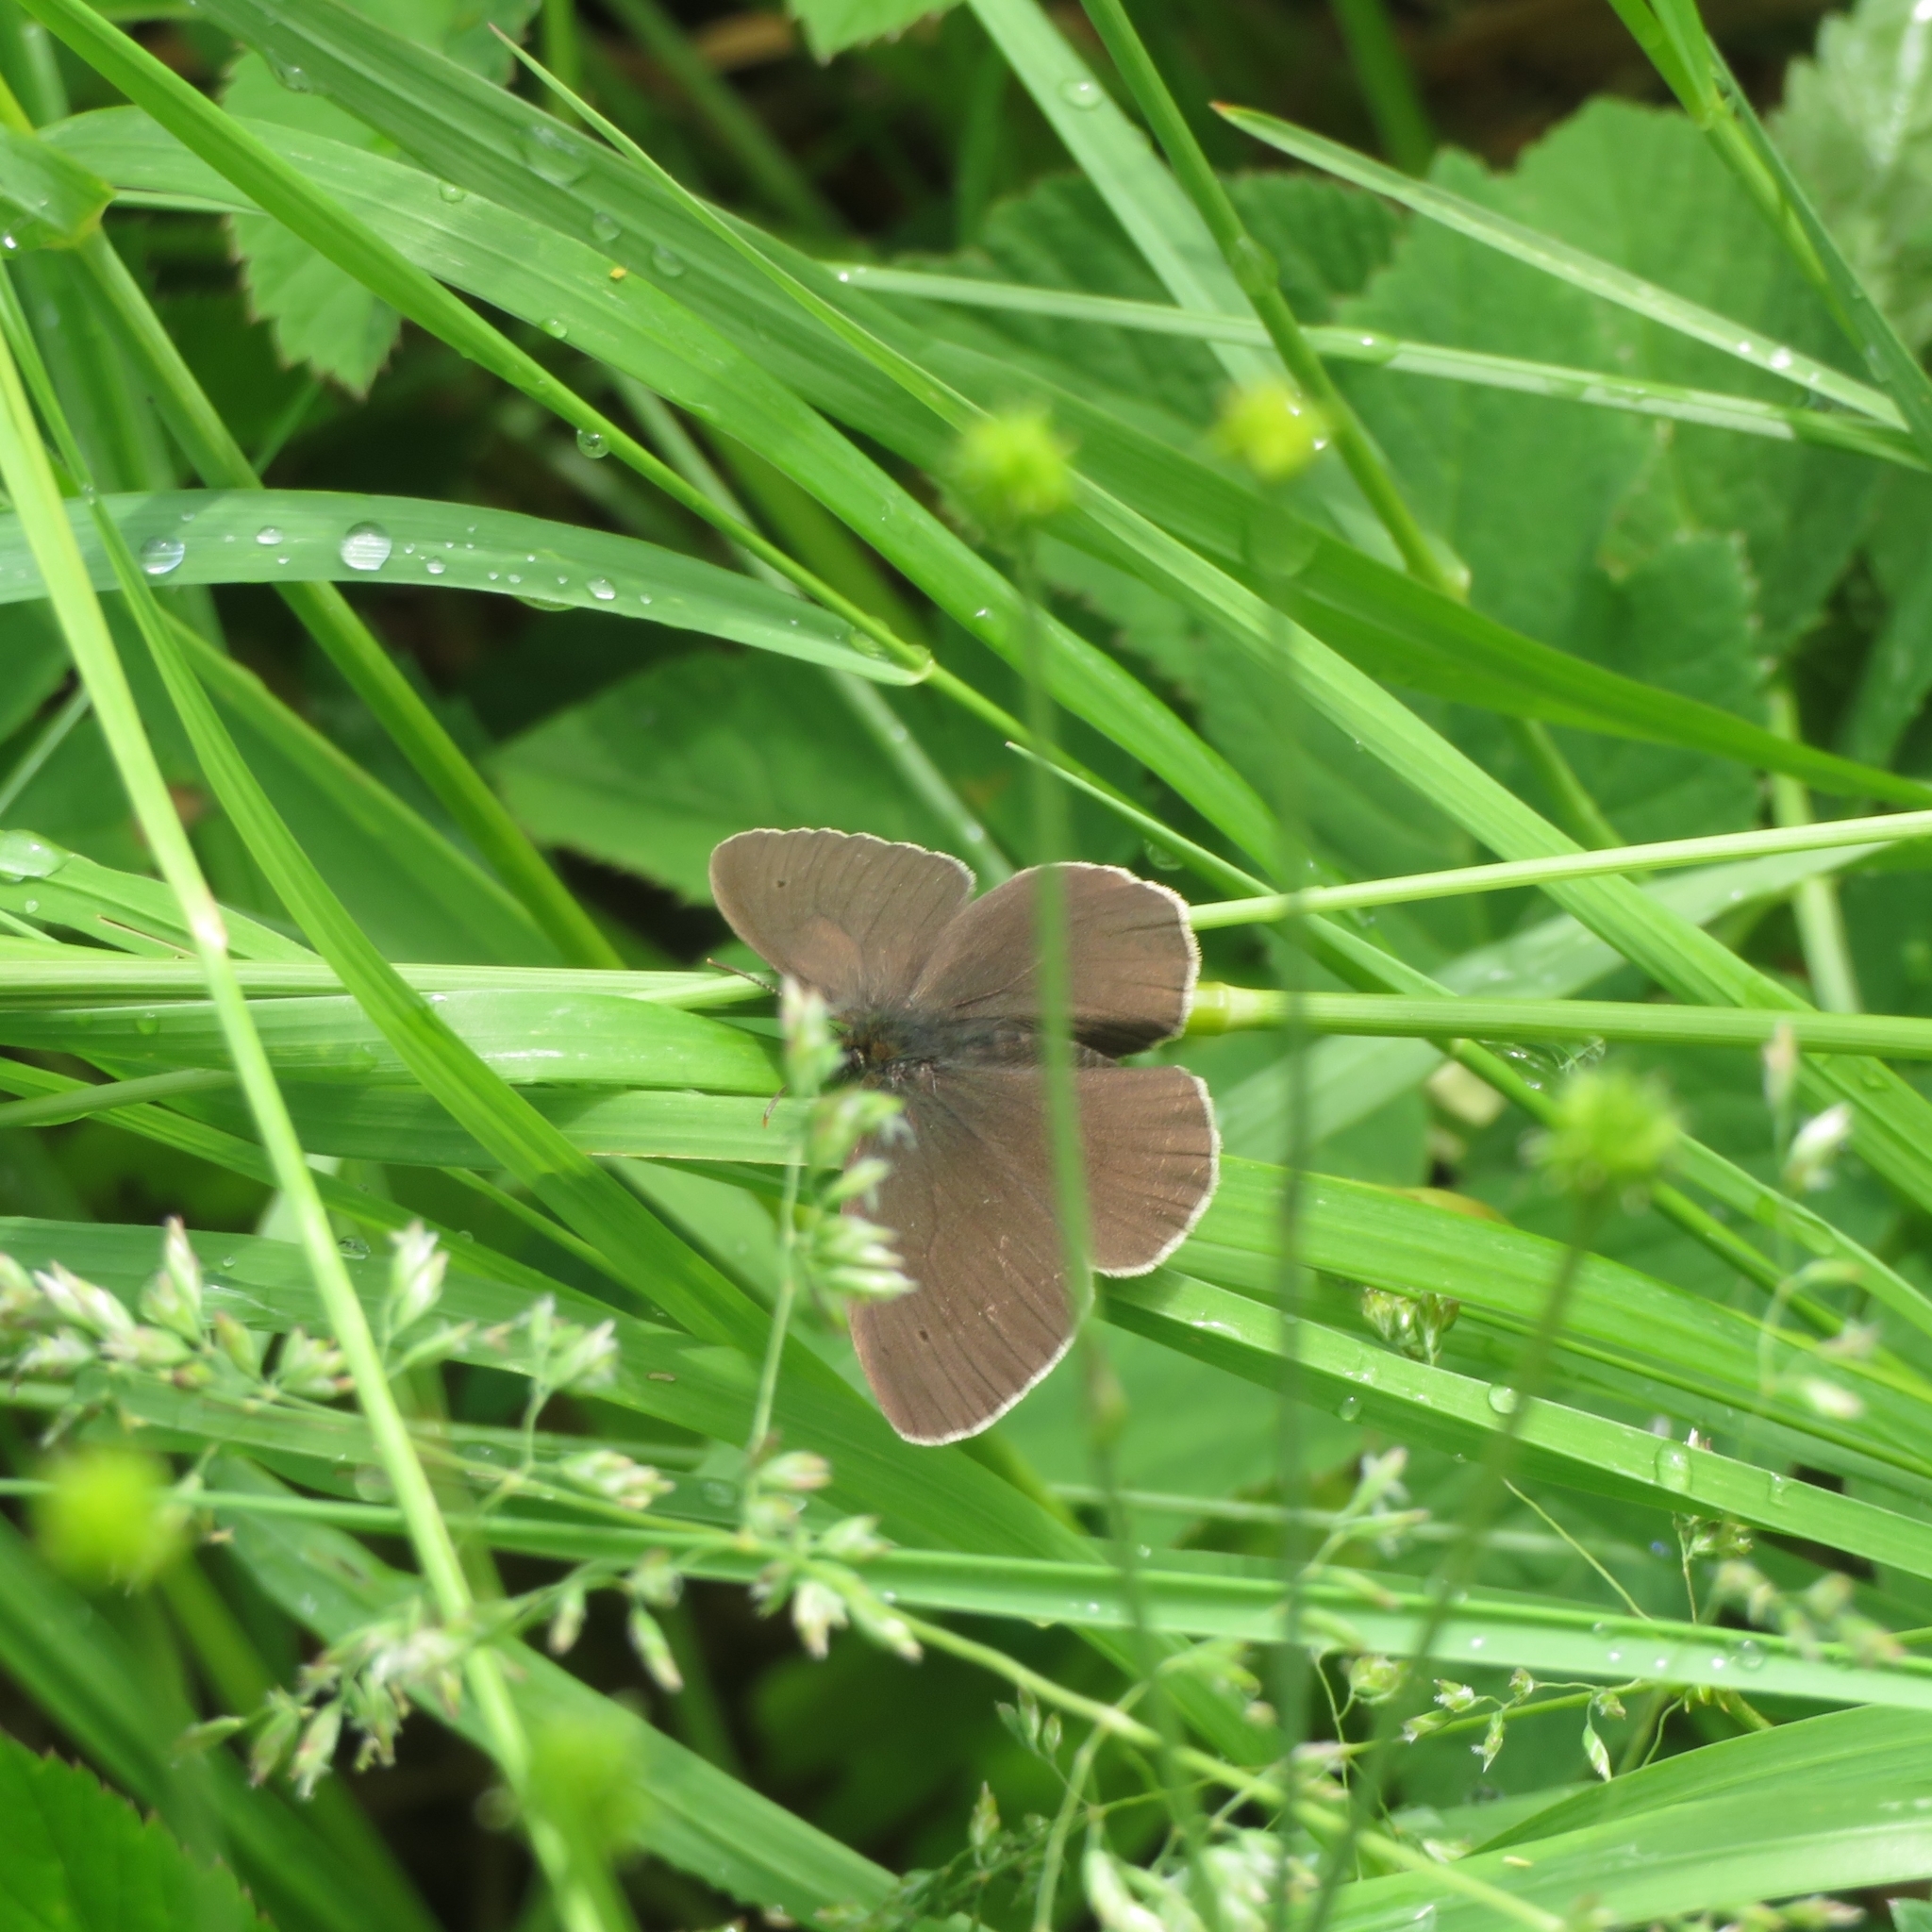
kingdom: Animalia
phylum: Arthropoda
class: Insecta
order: Lepidoptera
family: Nymphalidae
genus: Aphantopus
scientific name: Aphantopus hyperantus
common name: Ringlet
